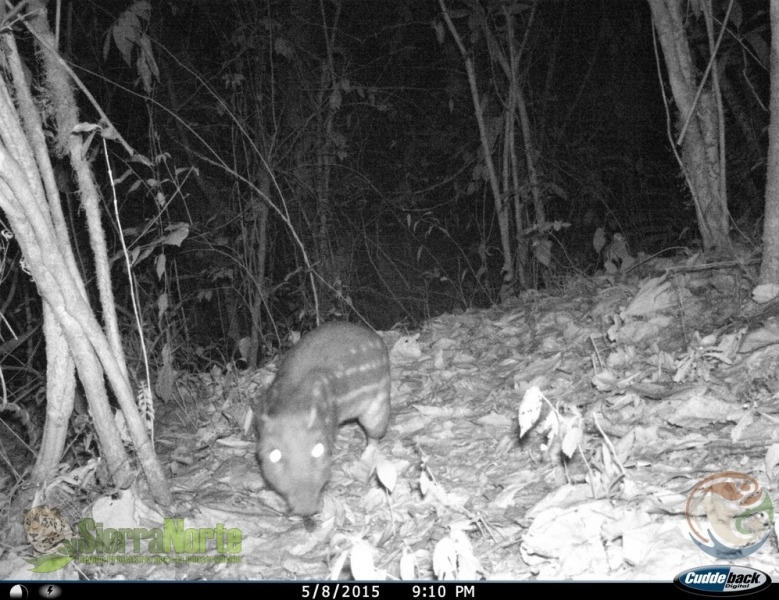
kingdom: Animalia
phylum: Chordata
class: Mammalia
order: Rodentia
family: Cuniculidae
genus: Cuniculus
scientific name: Cuniculus paca
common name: Lowland paca
